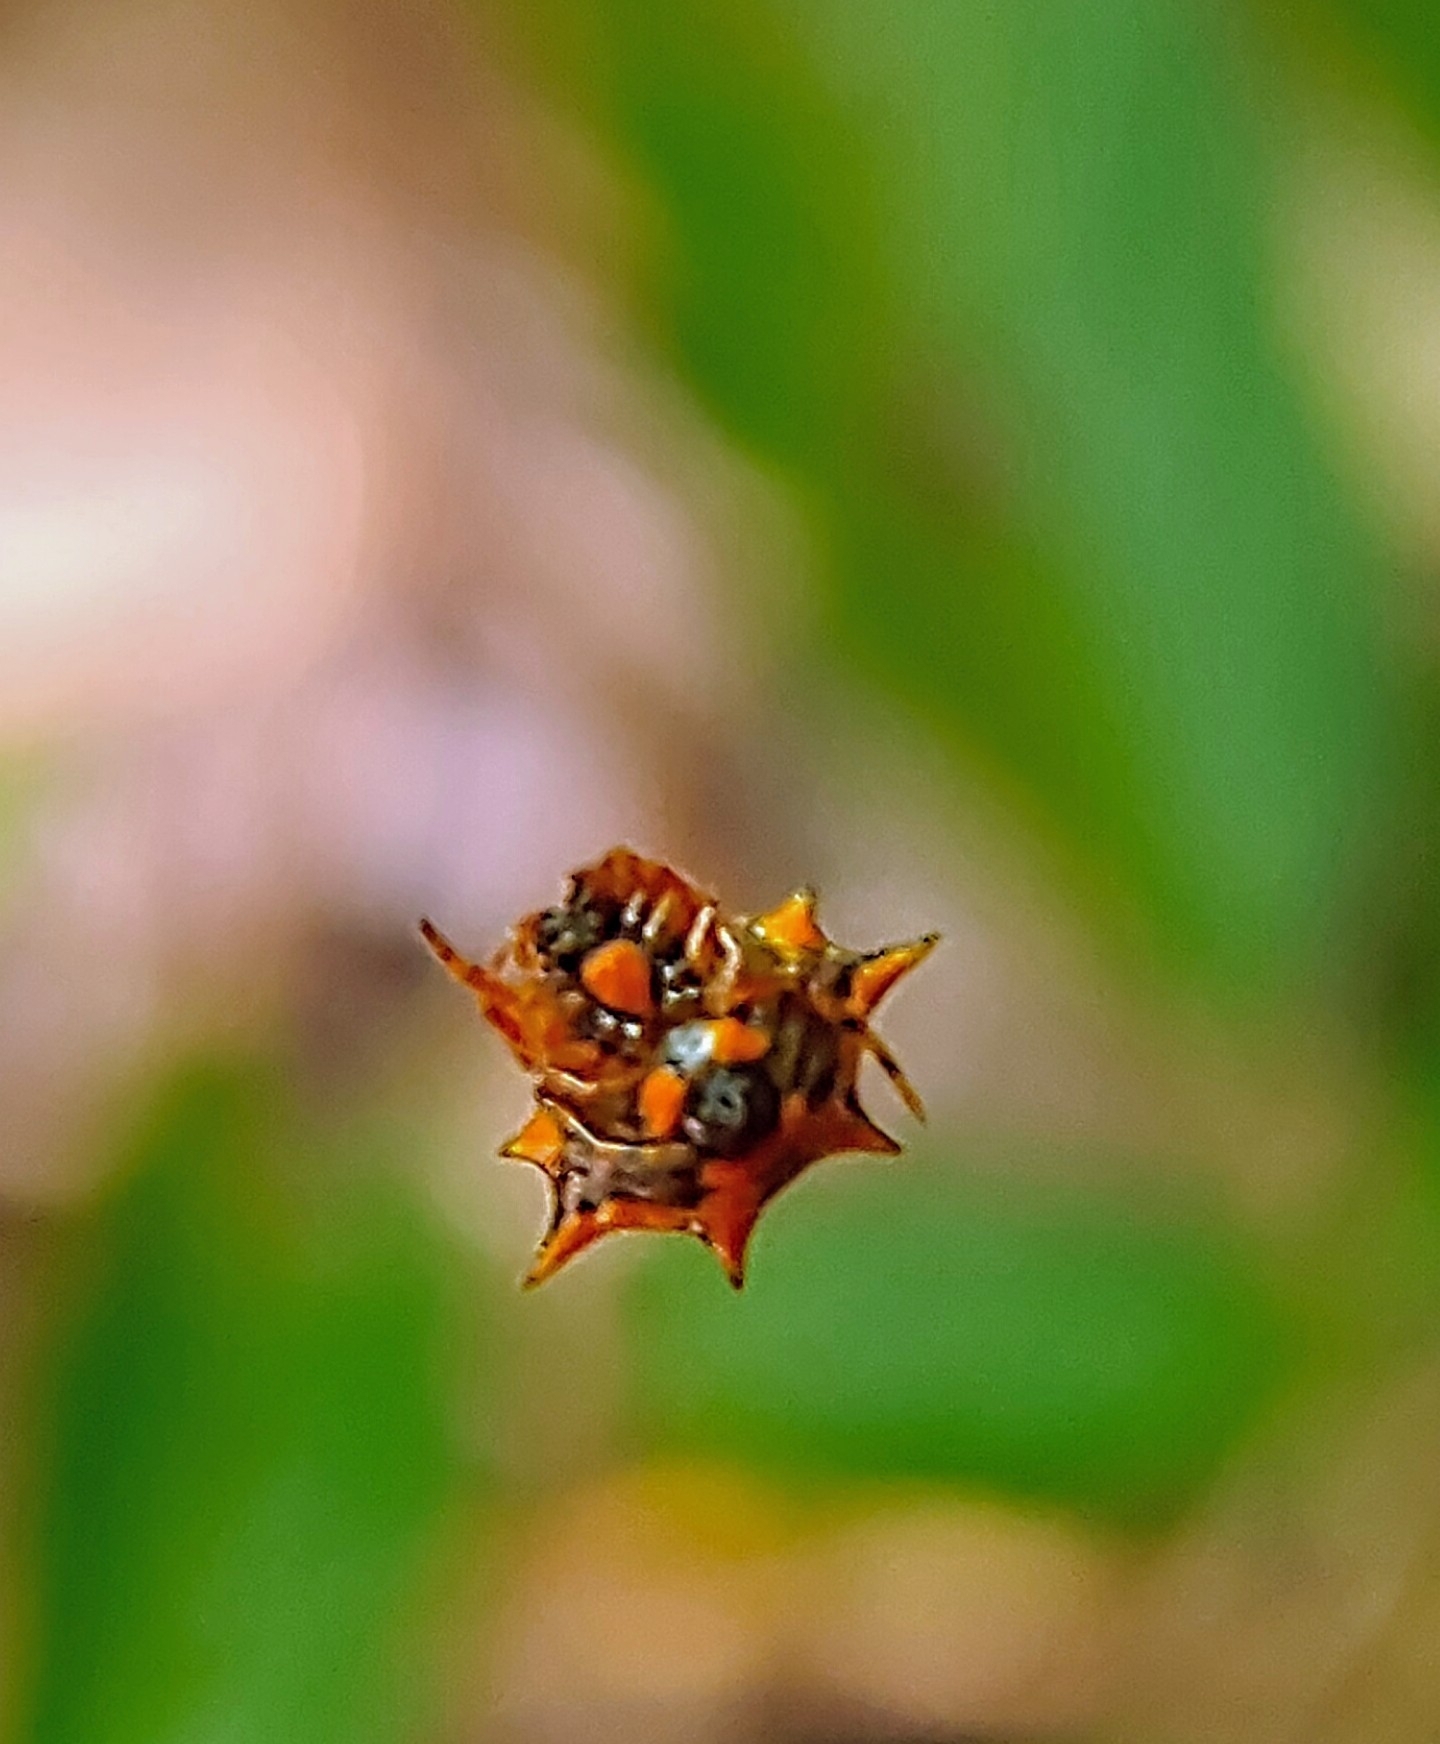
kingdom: Animalia
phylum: Arthropoda
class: Arachnida
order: Araneae
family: Araneidae
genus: Macracantha
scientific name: Macracantha hasselti
